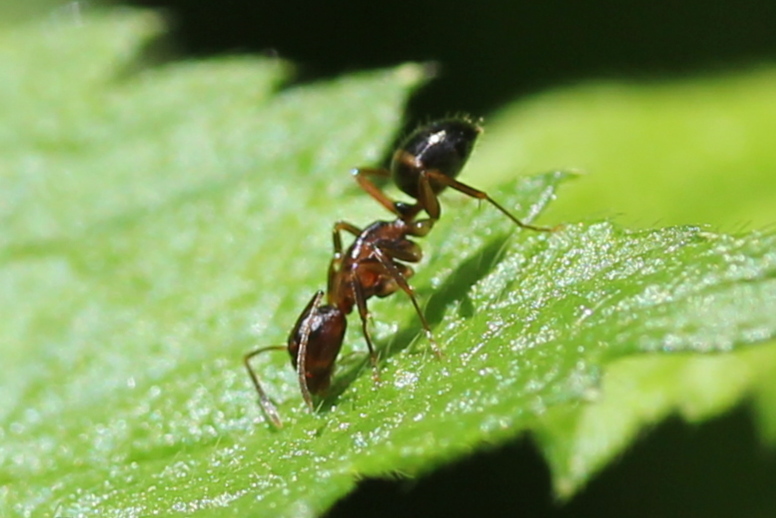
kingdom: Animalia
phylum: Arthropoda
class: Insecta
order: Hymenoptera
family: Formicidae
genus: Camponotus
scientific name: Camponotus subbarbatus
